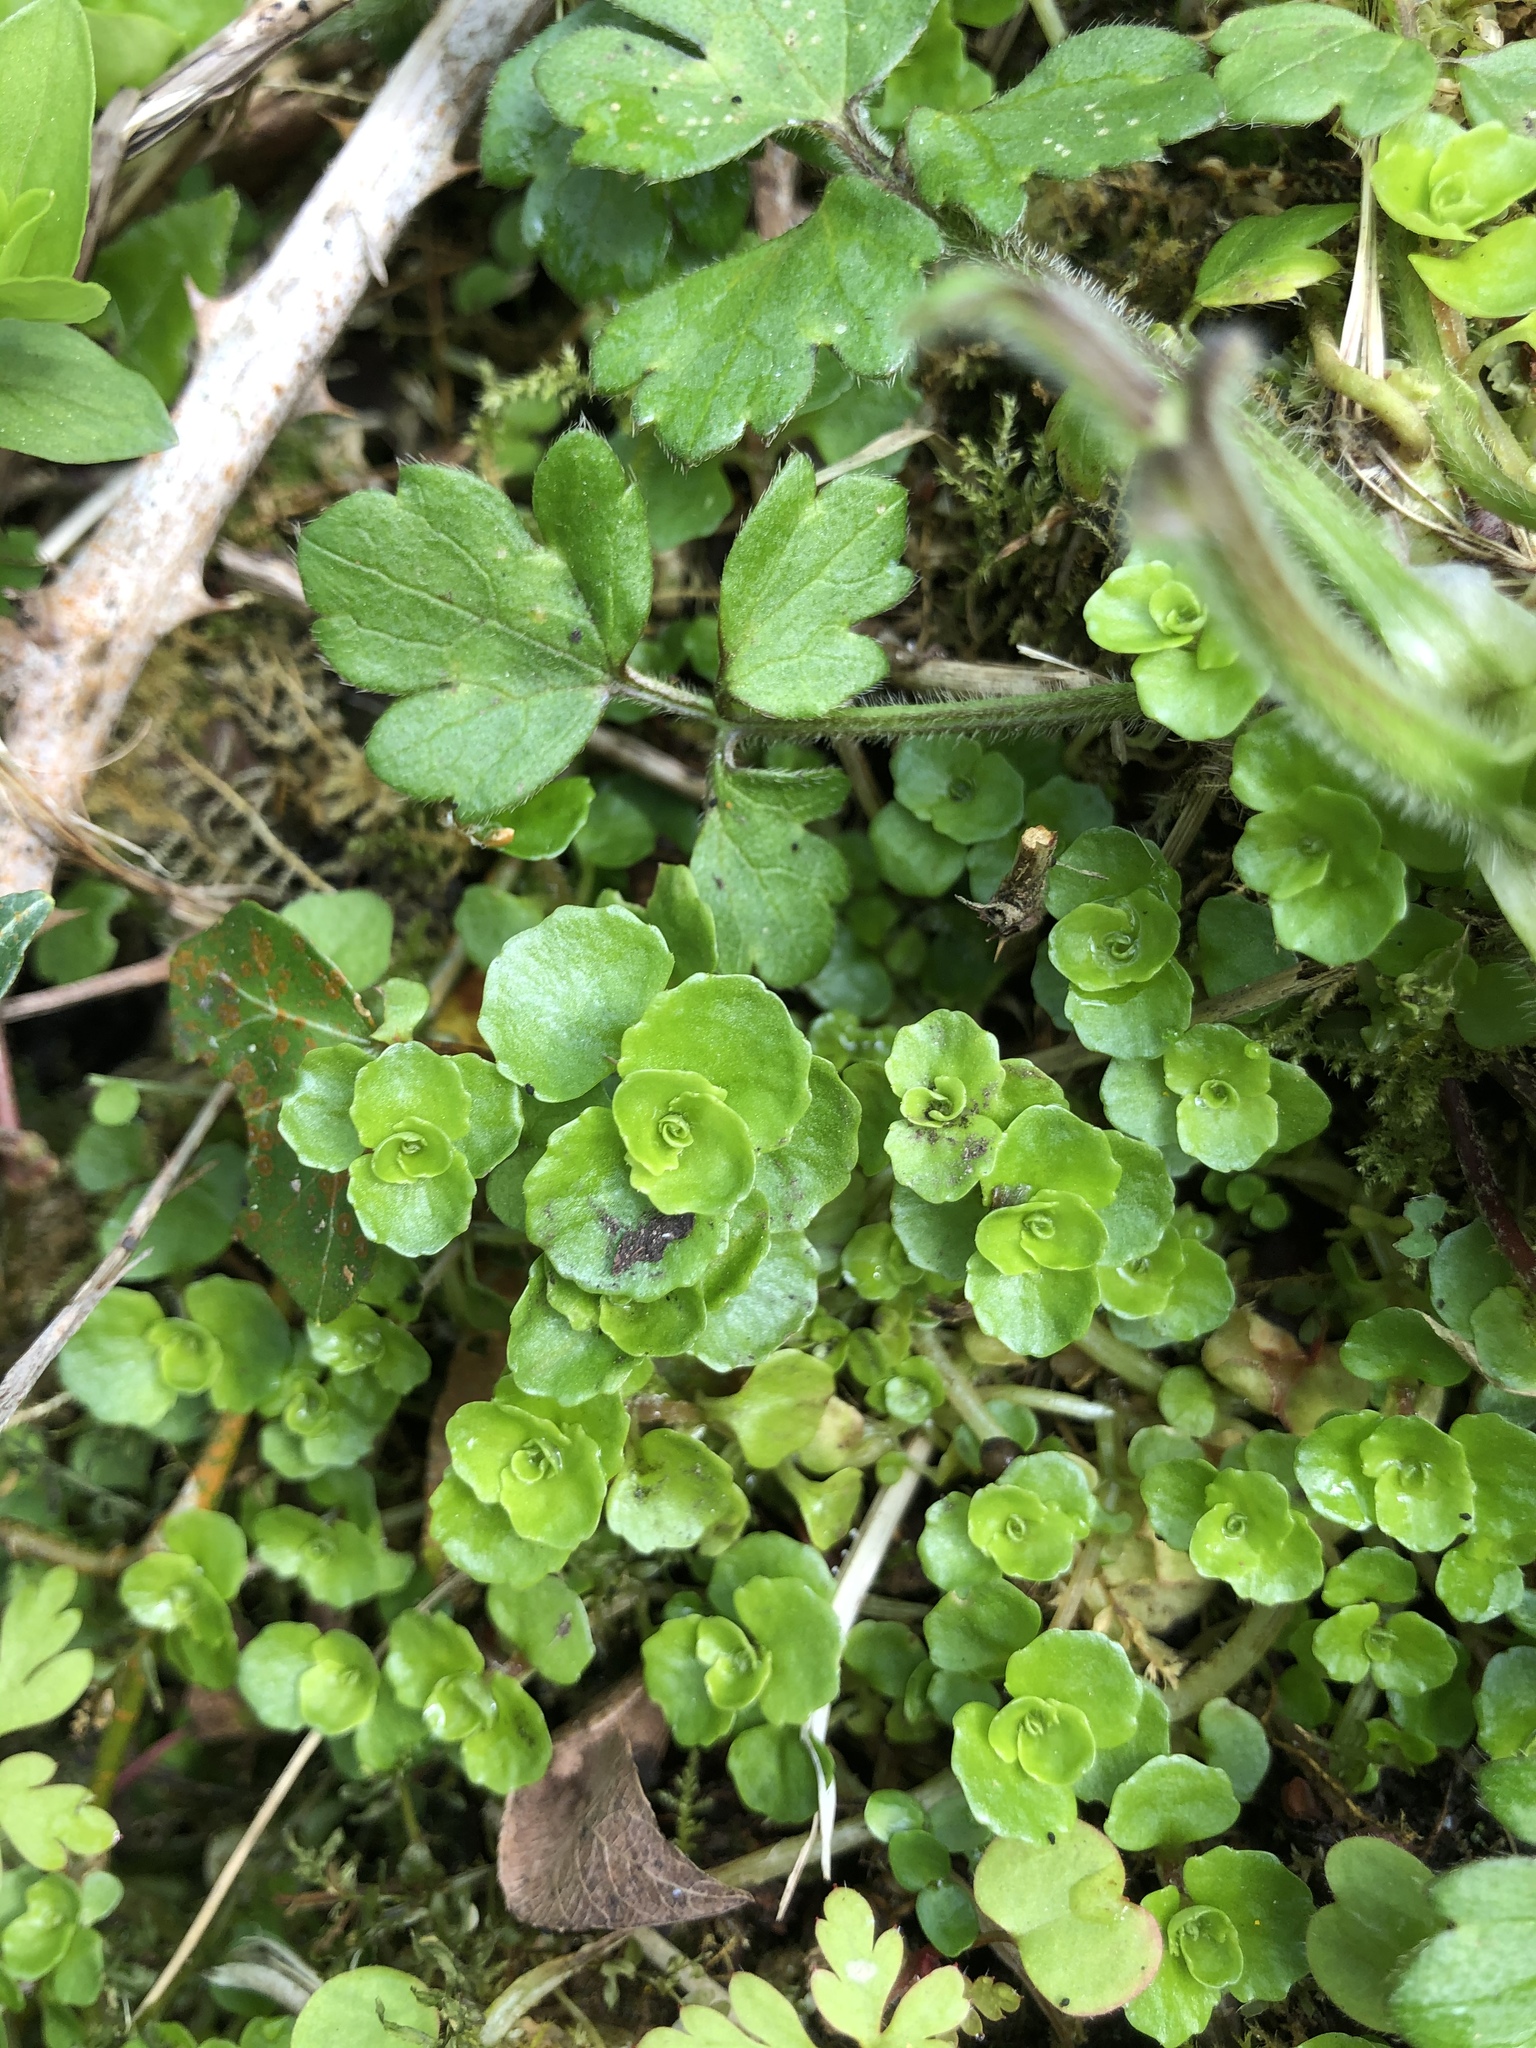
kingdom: Plantae
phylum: Tracheophyta
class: Magnoliopsida
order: Saxifragales
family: Saxifragaceae
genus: Chrysosplenium
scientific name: Chrysosplenium oppositifolium
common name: Opposite-leaved golden-saxifrage
